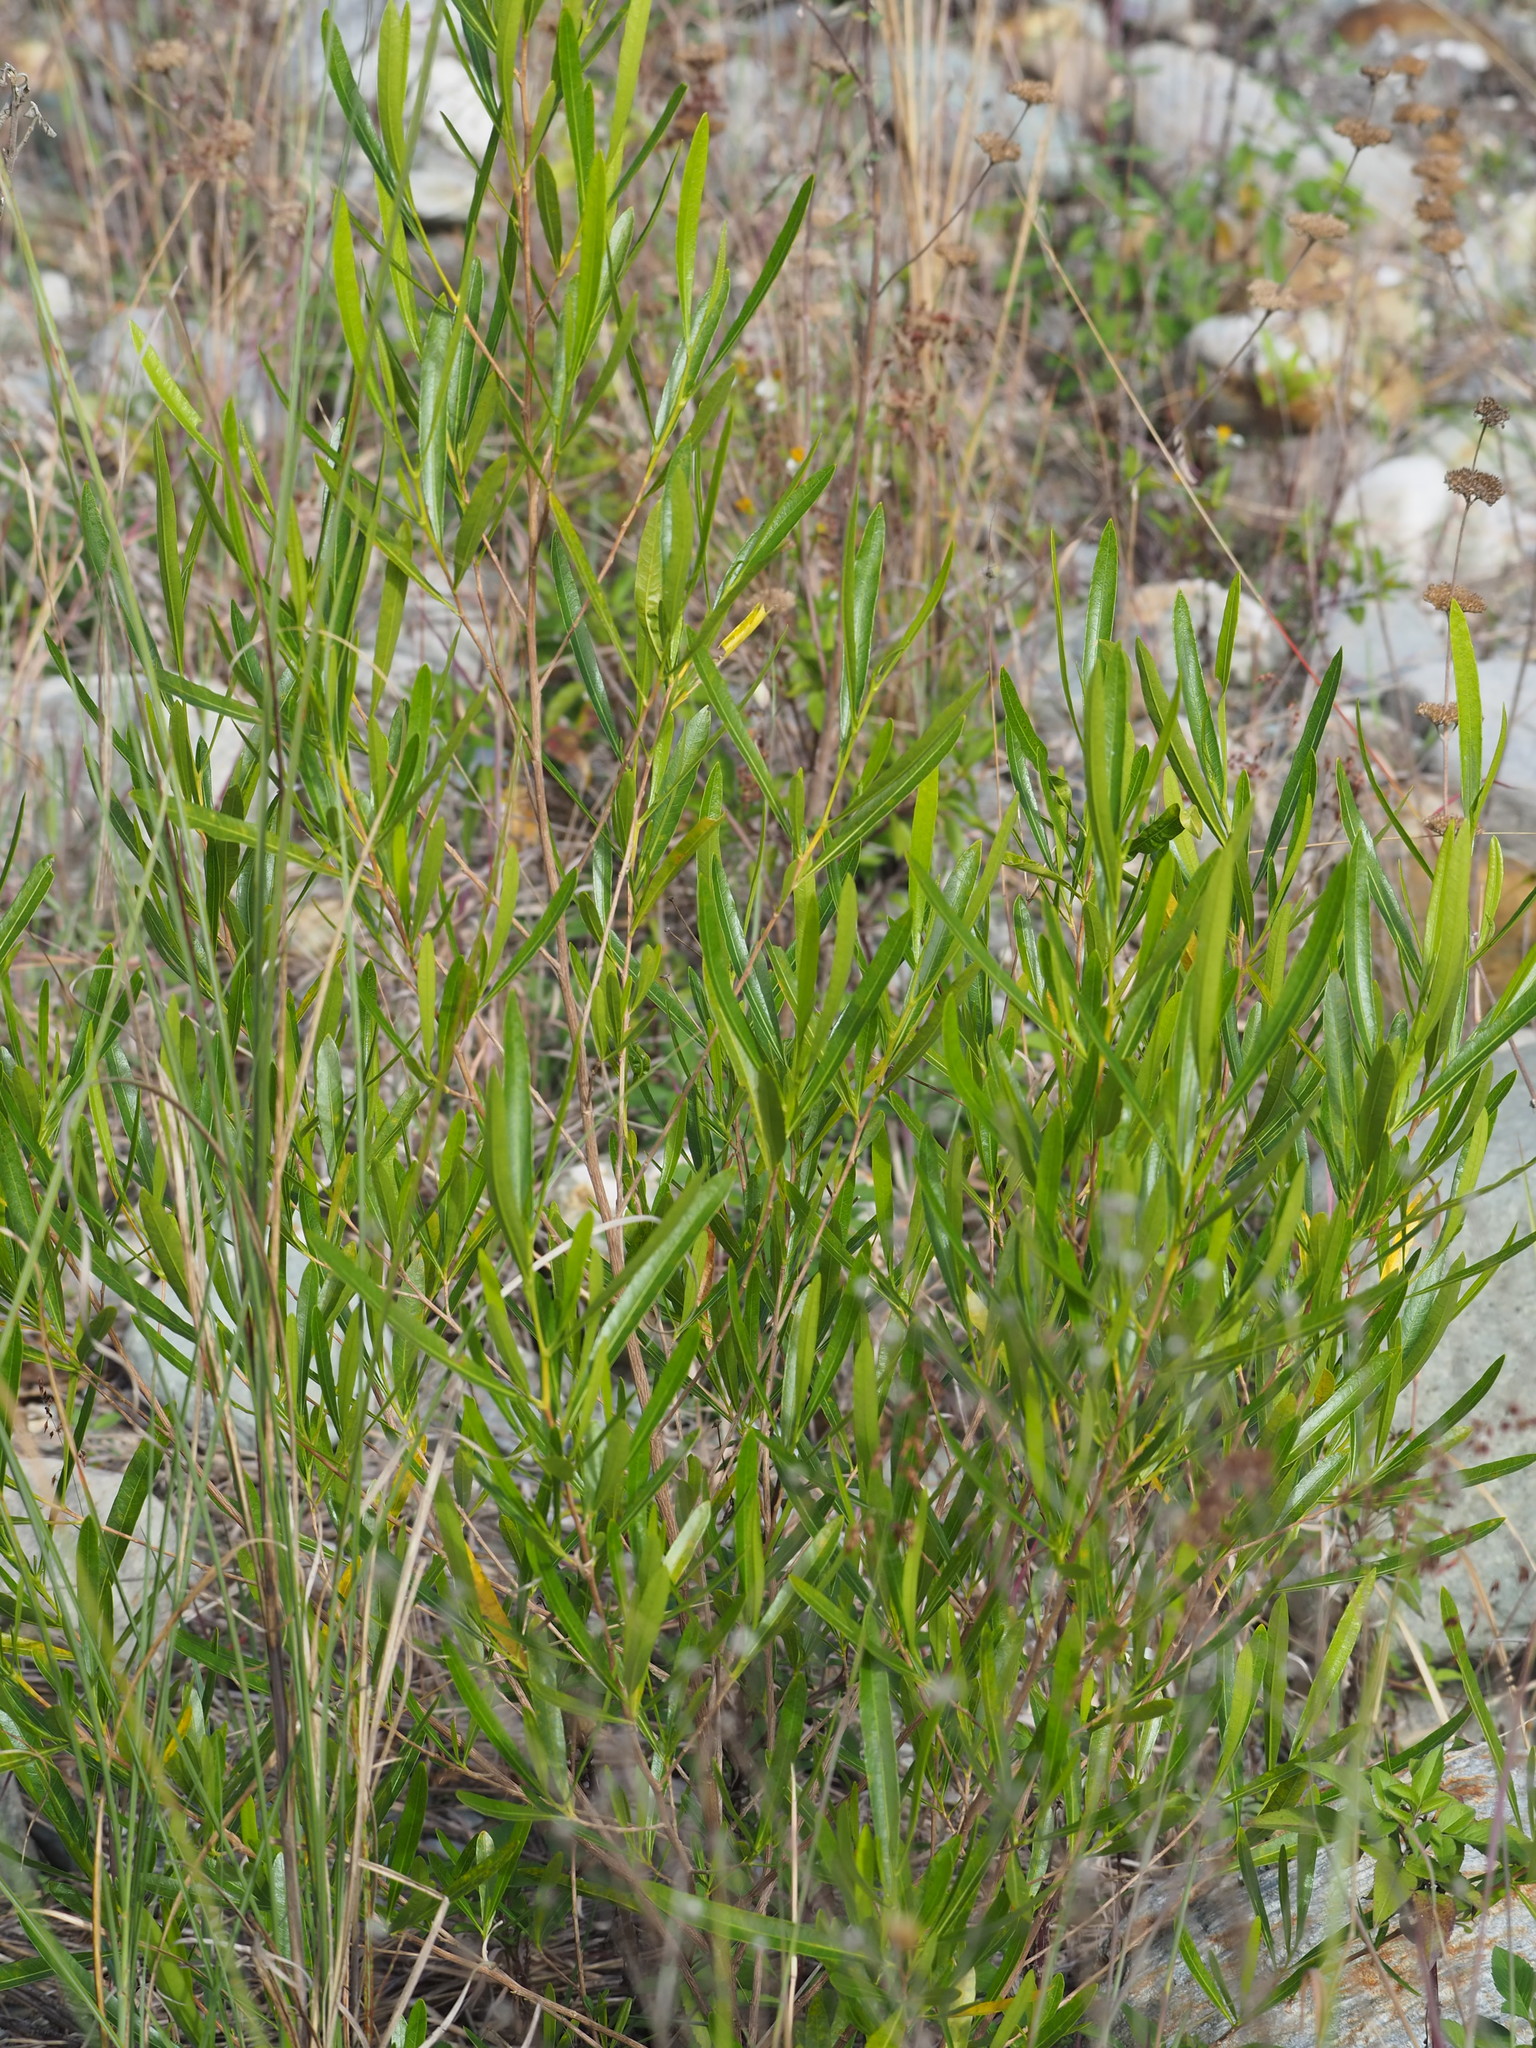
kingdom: Plantae
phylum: Tracheophyta
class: Magnoliopsida
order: Sapindales
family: Sapindaceae
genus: Dodonaea
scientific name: Dodonaea viscosa
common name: Hopbush
